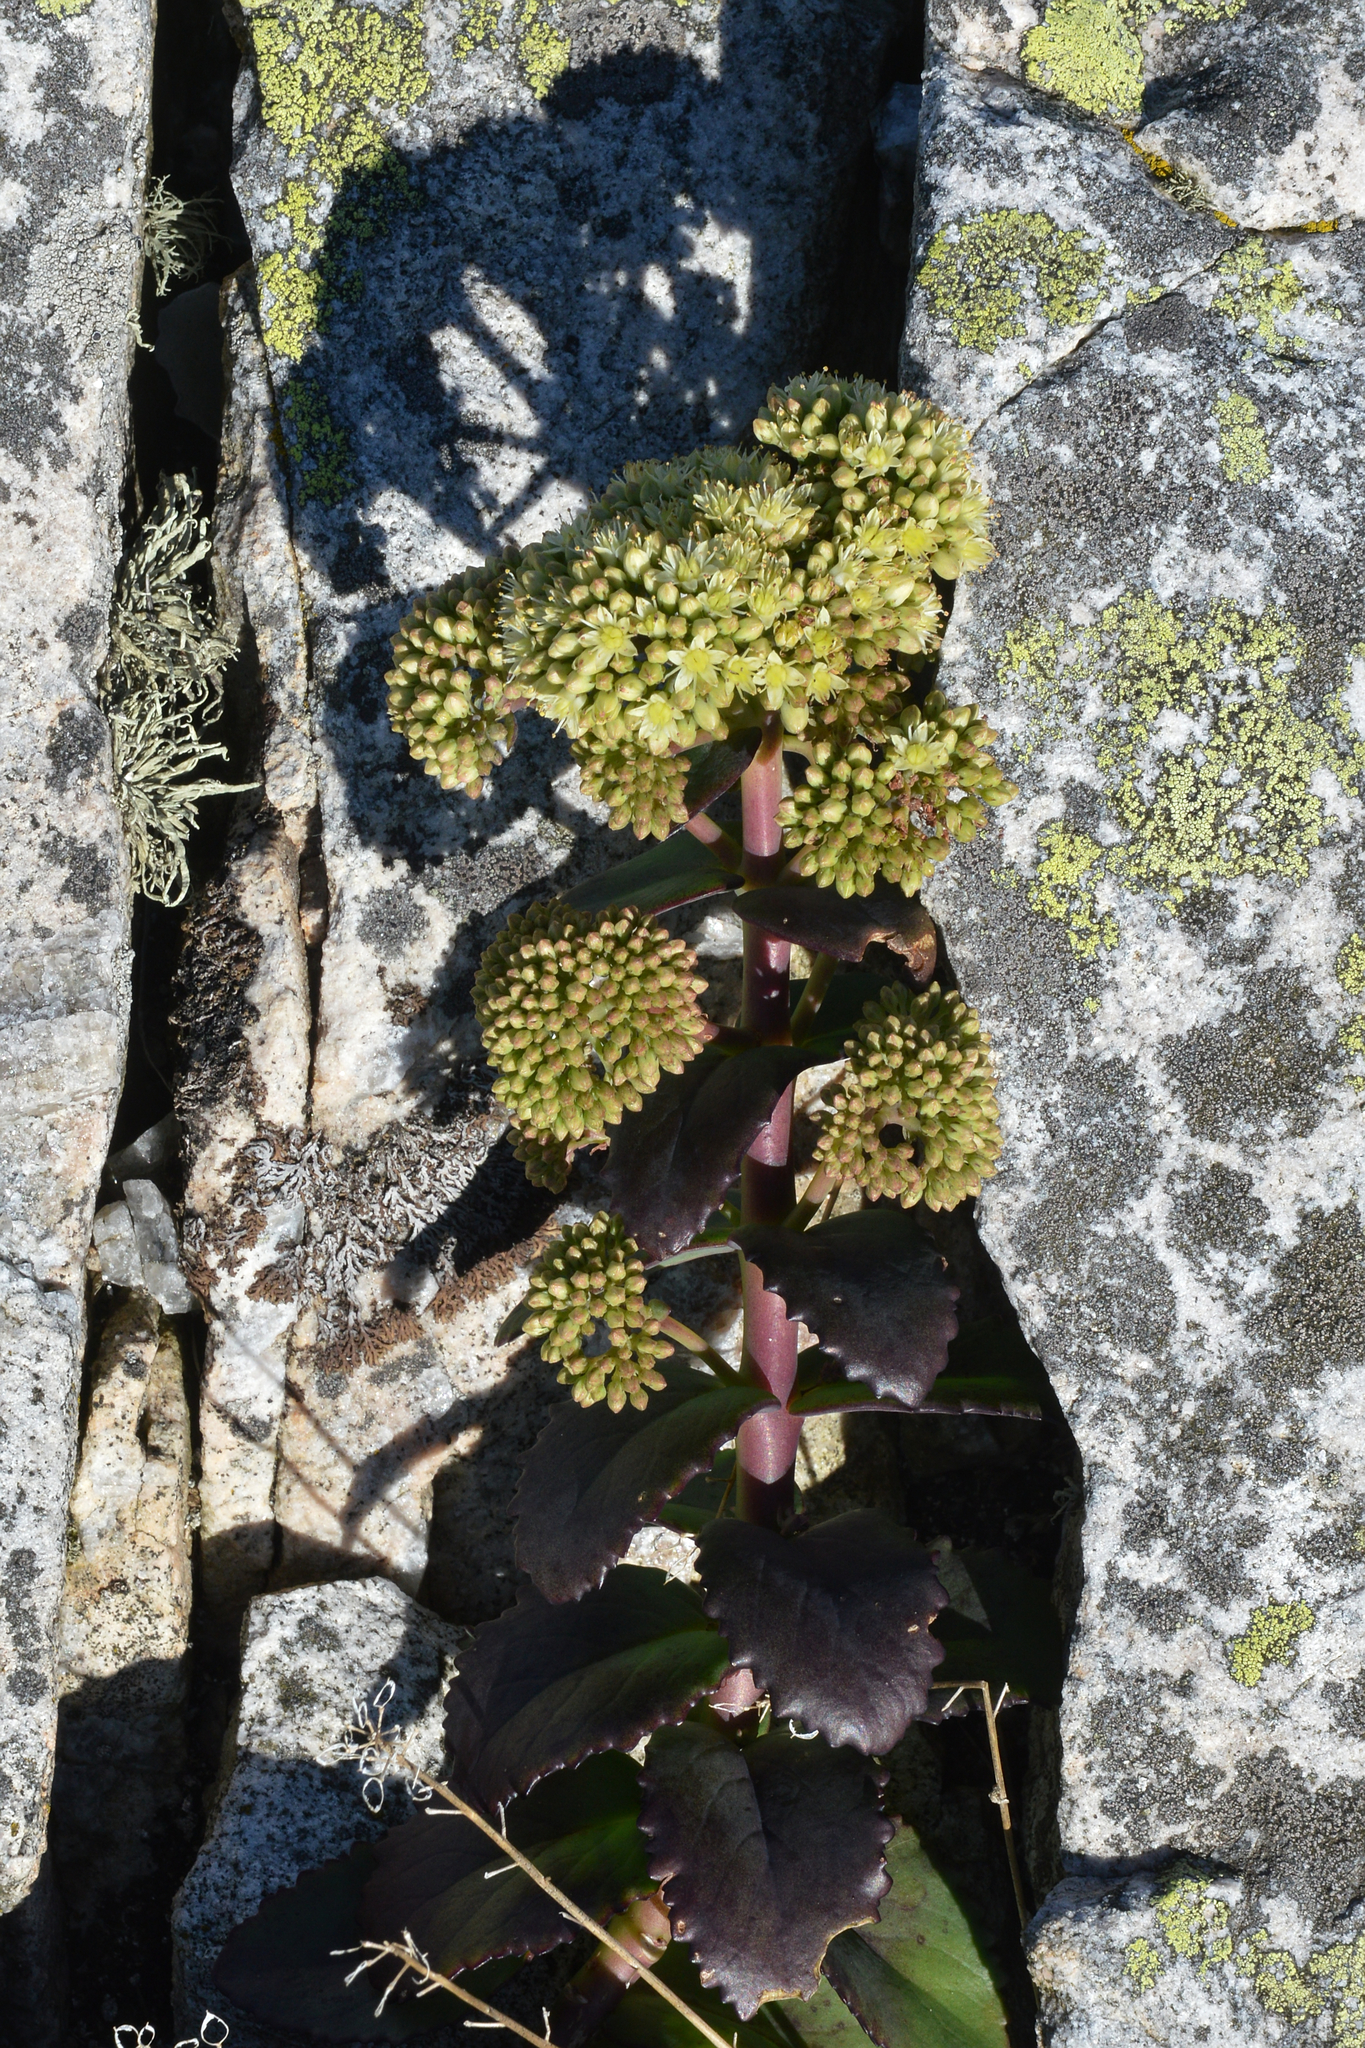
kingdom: Plantae
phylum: Tracheophyta
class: Magnoliopsida
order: Saxifragales
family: Crassulaceae
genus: Hylotelephium
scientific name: Hylotelephium maximum
